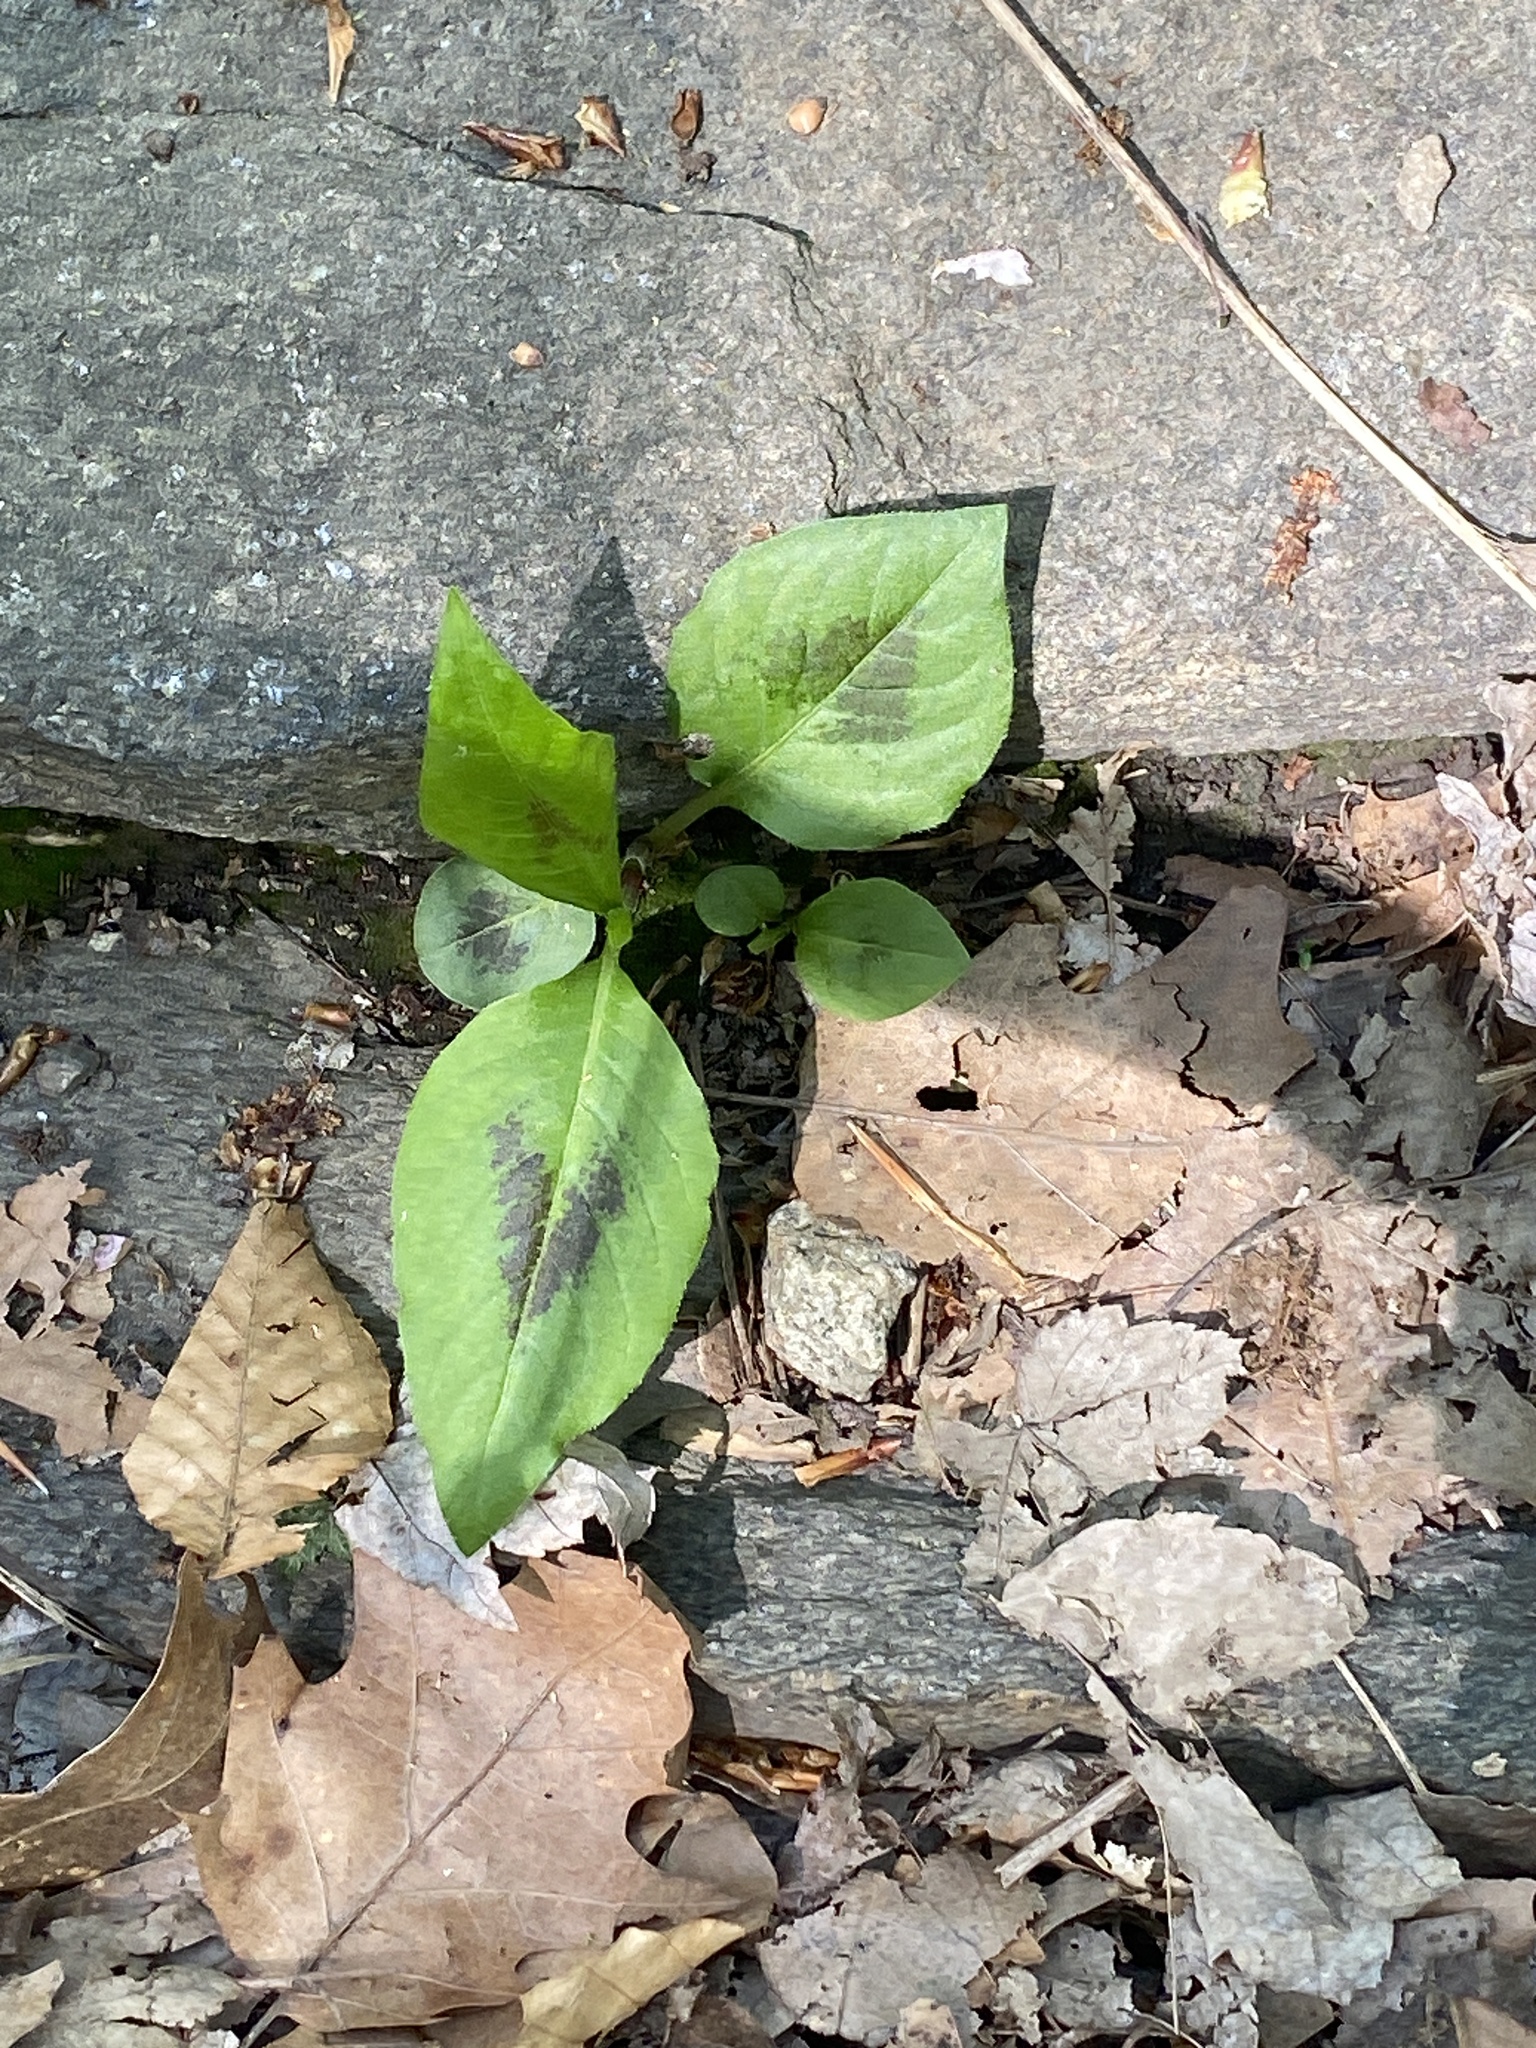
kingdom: Plantae
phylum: Tracheophyta
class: Magnoliopsida
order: Caryophyllales
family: Polygonaceae
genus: Persicaria
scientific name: Persicaria virginiana
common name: Jumpseed
